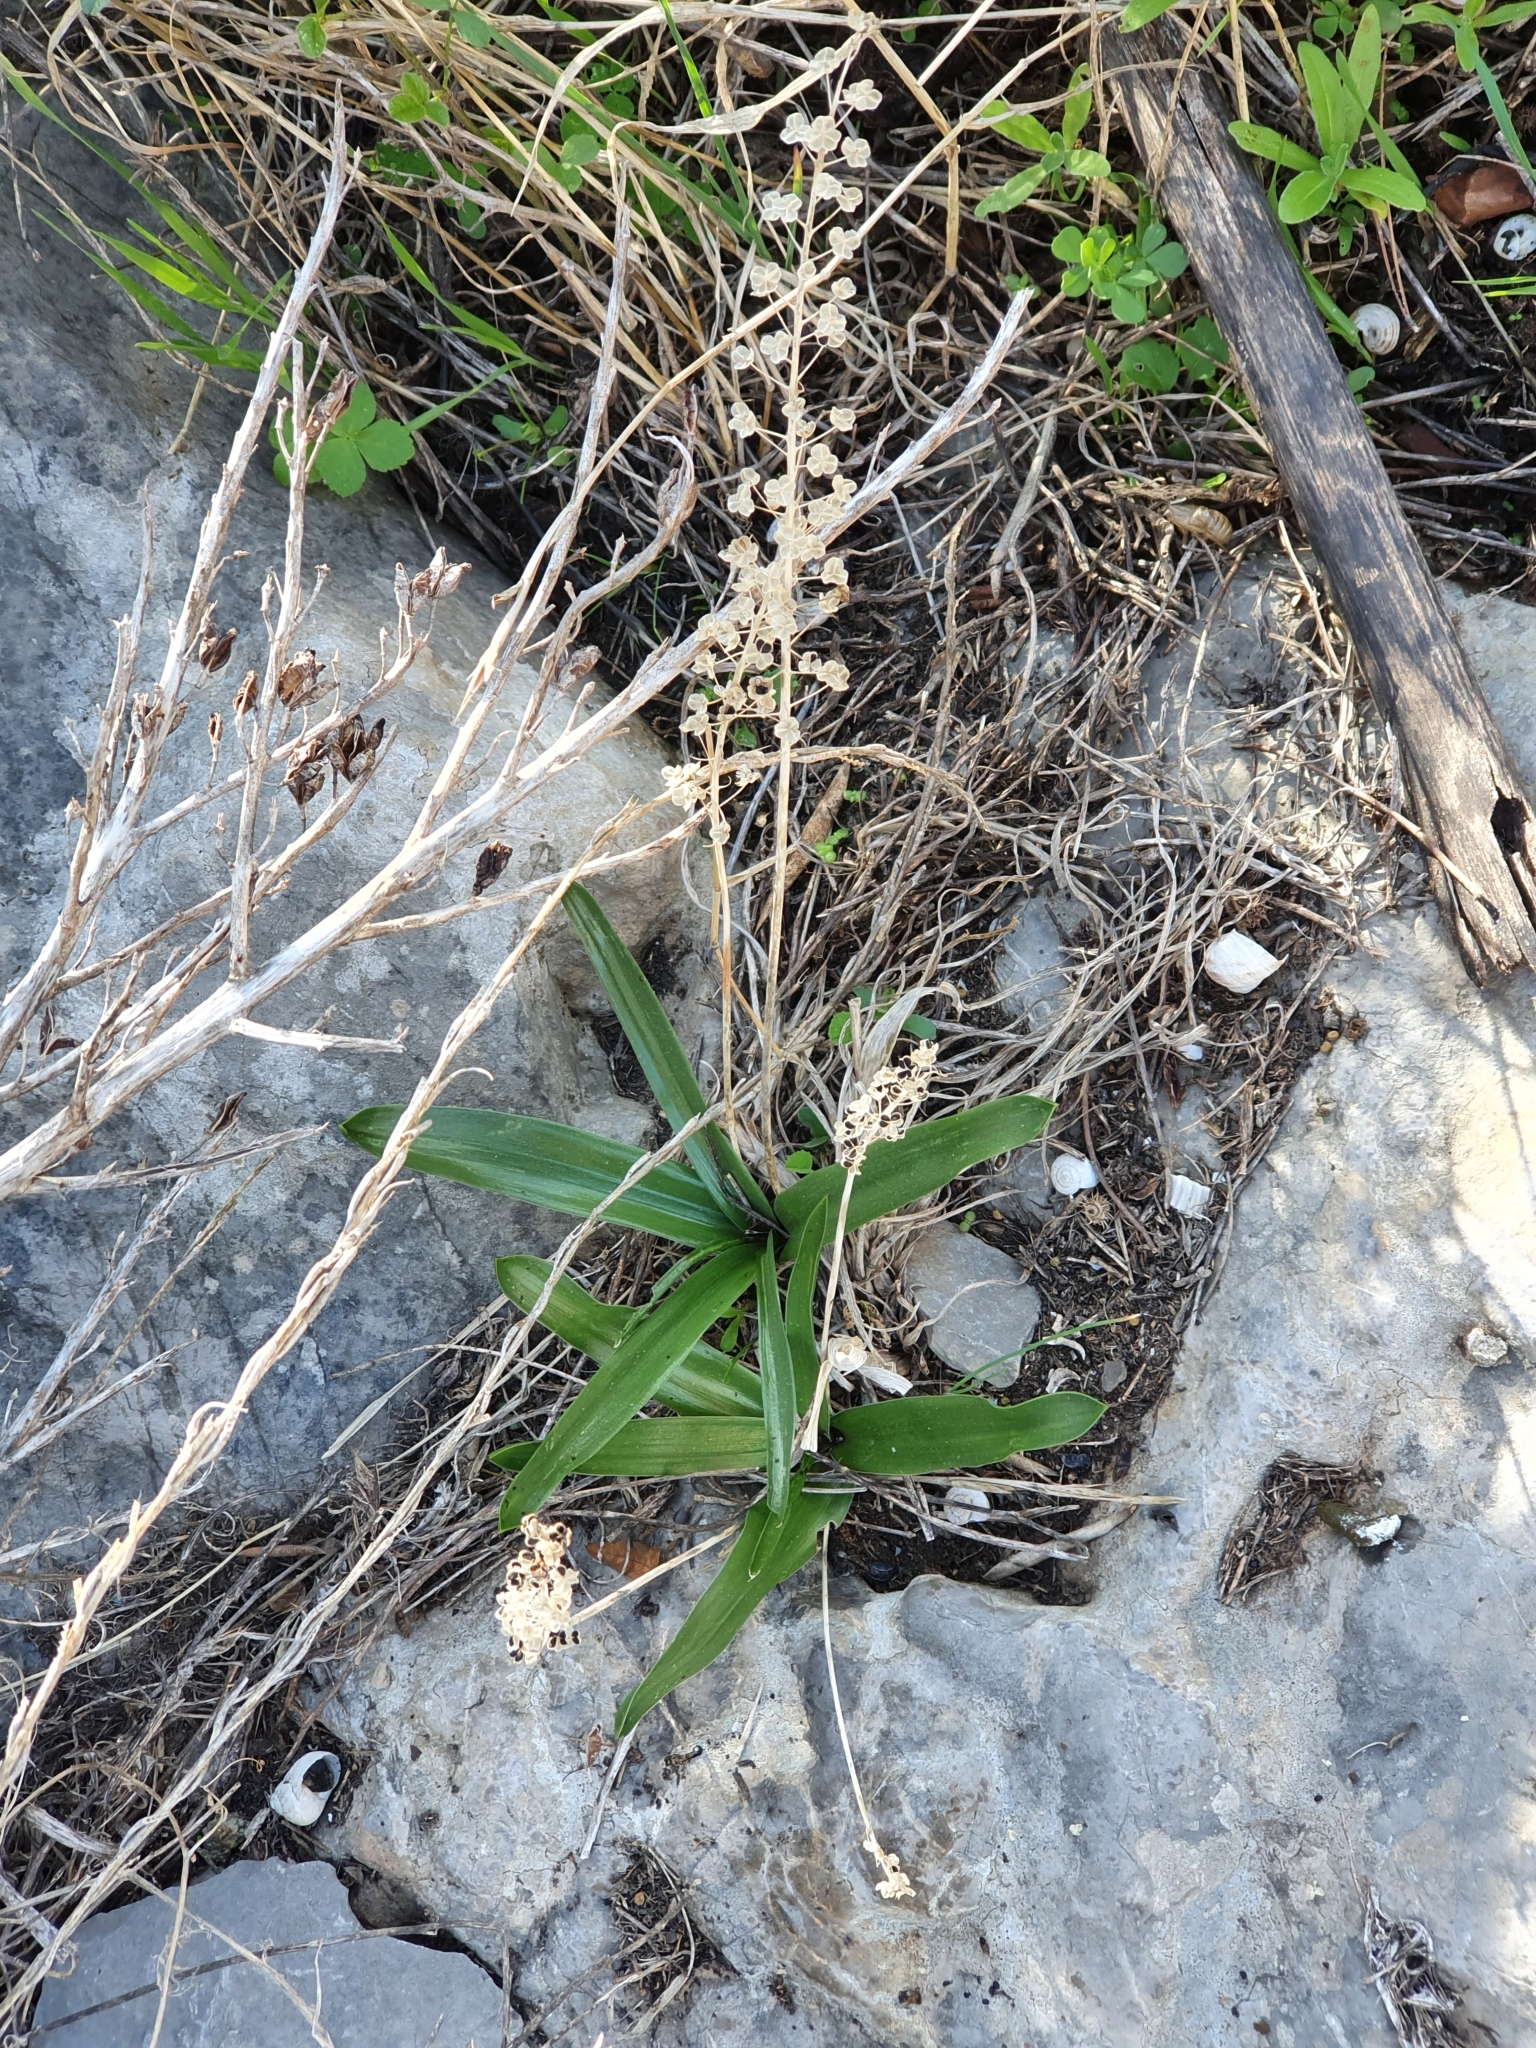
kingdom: Plantae
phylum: Tracheophyta
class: Liliopsida
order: Asparagales
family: Asparagaceae
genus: Prospero
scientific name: Prospero obtusifolium
